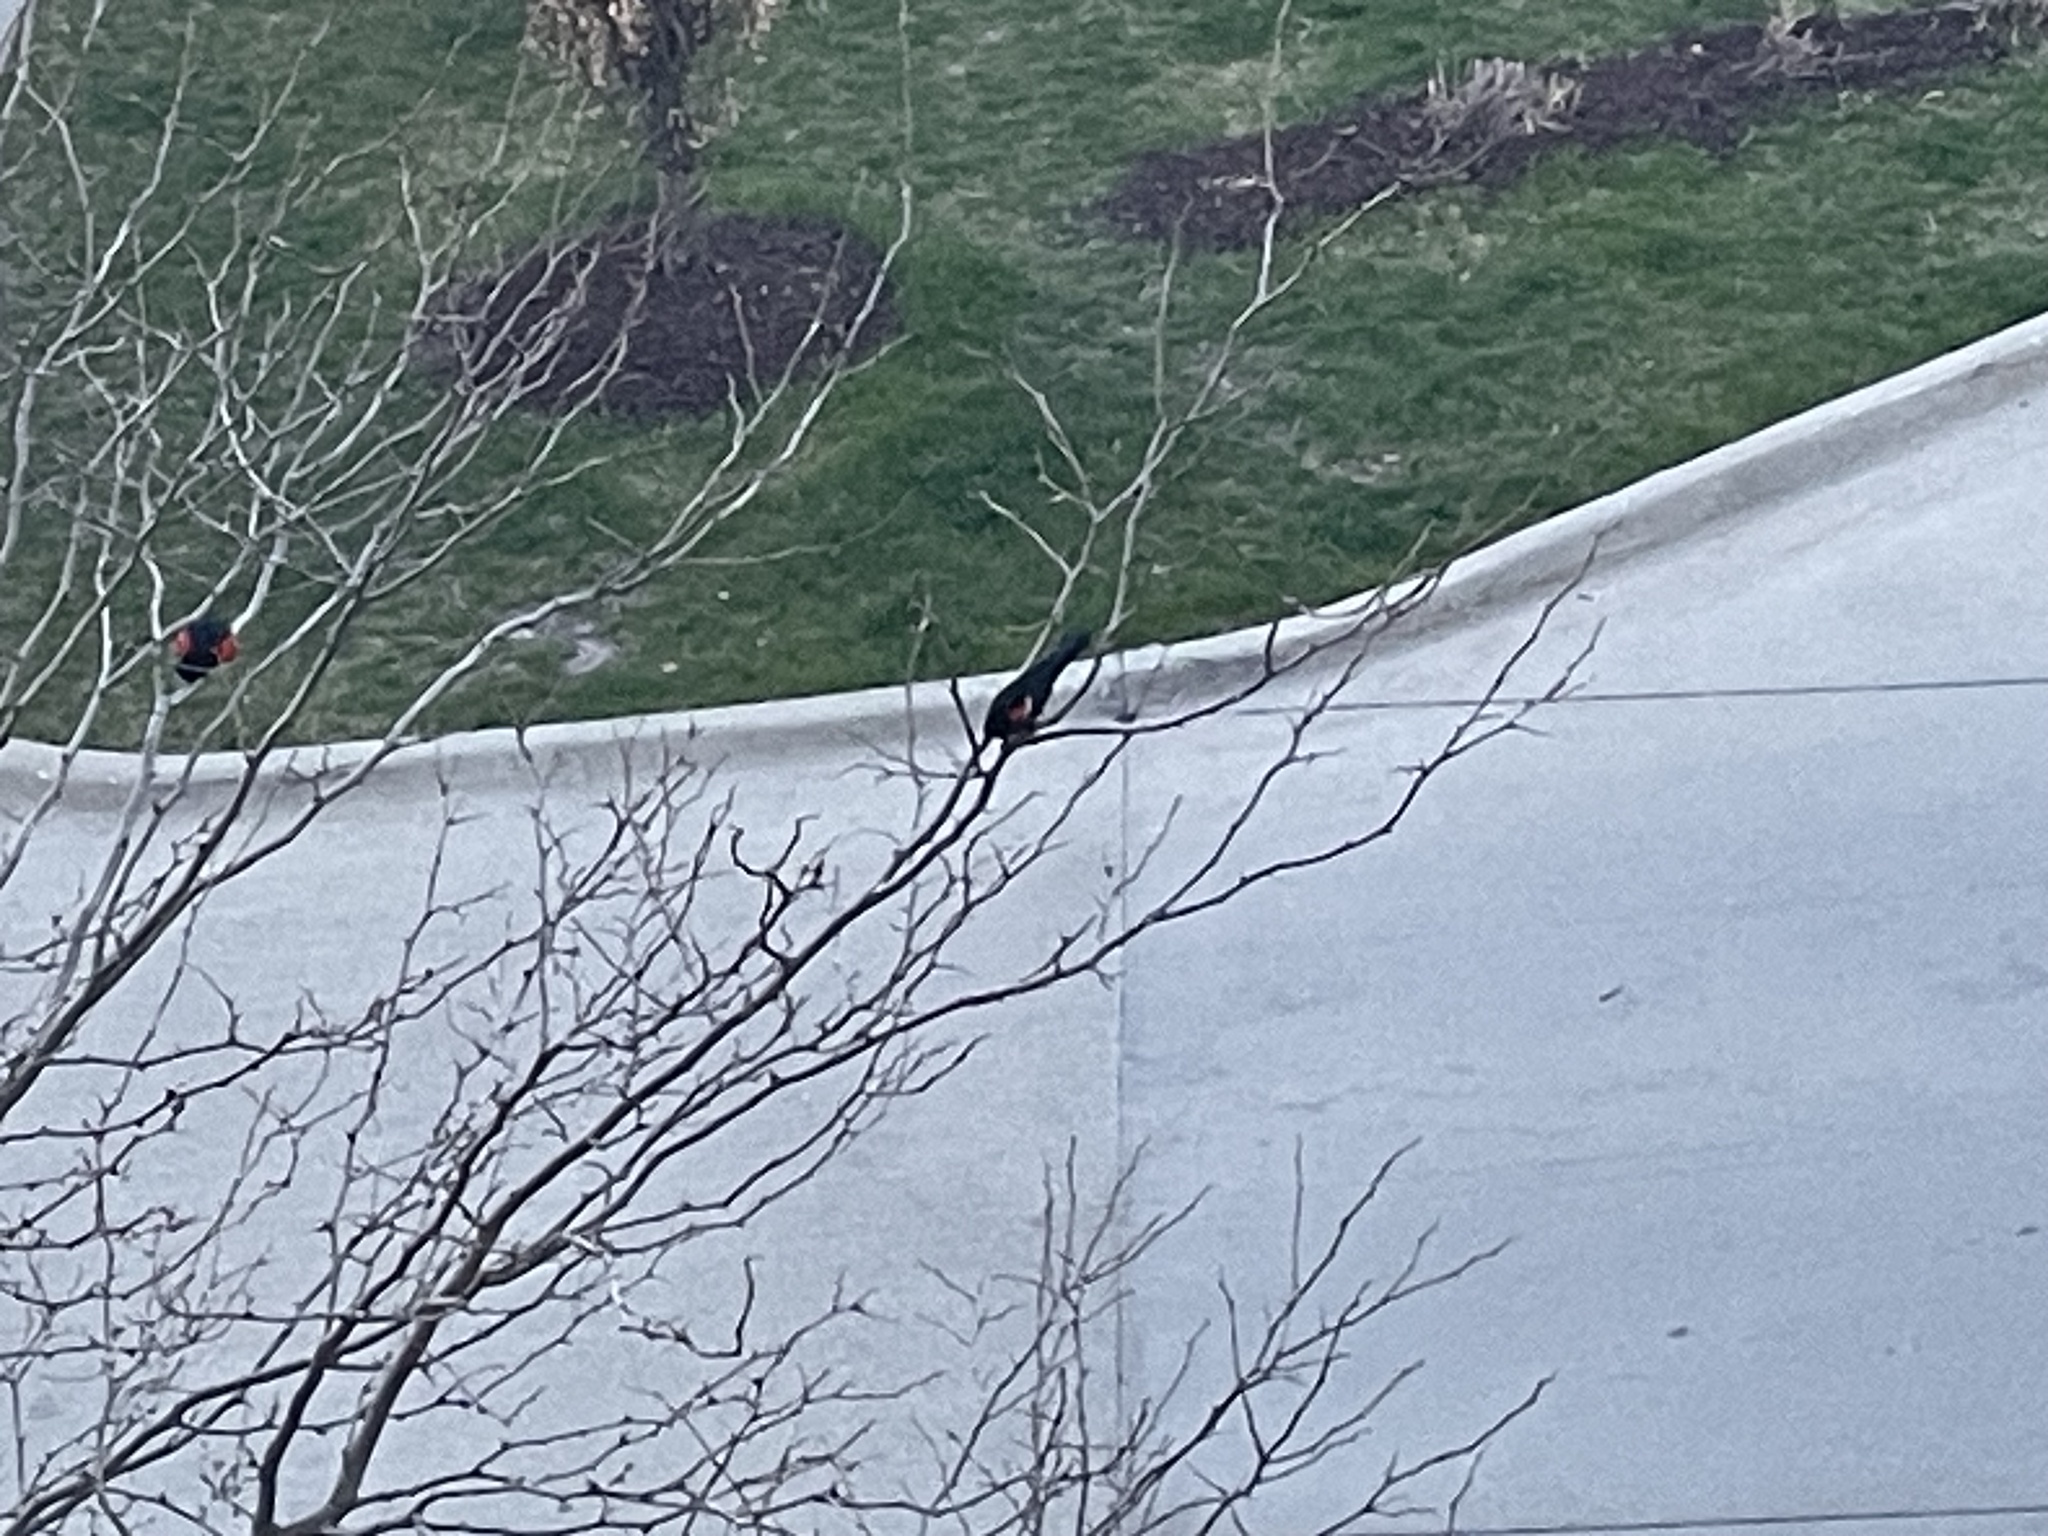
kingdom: Animalia
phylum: Chordata
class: Aves
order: Passeriformes
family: Icteridae
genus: Agelaius
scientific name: Agelaius phoeniceus
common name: Red-winged blackbird
